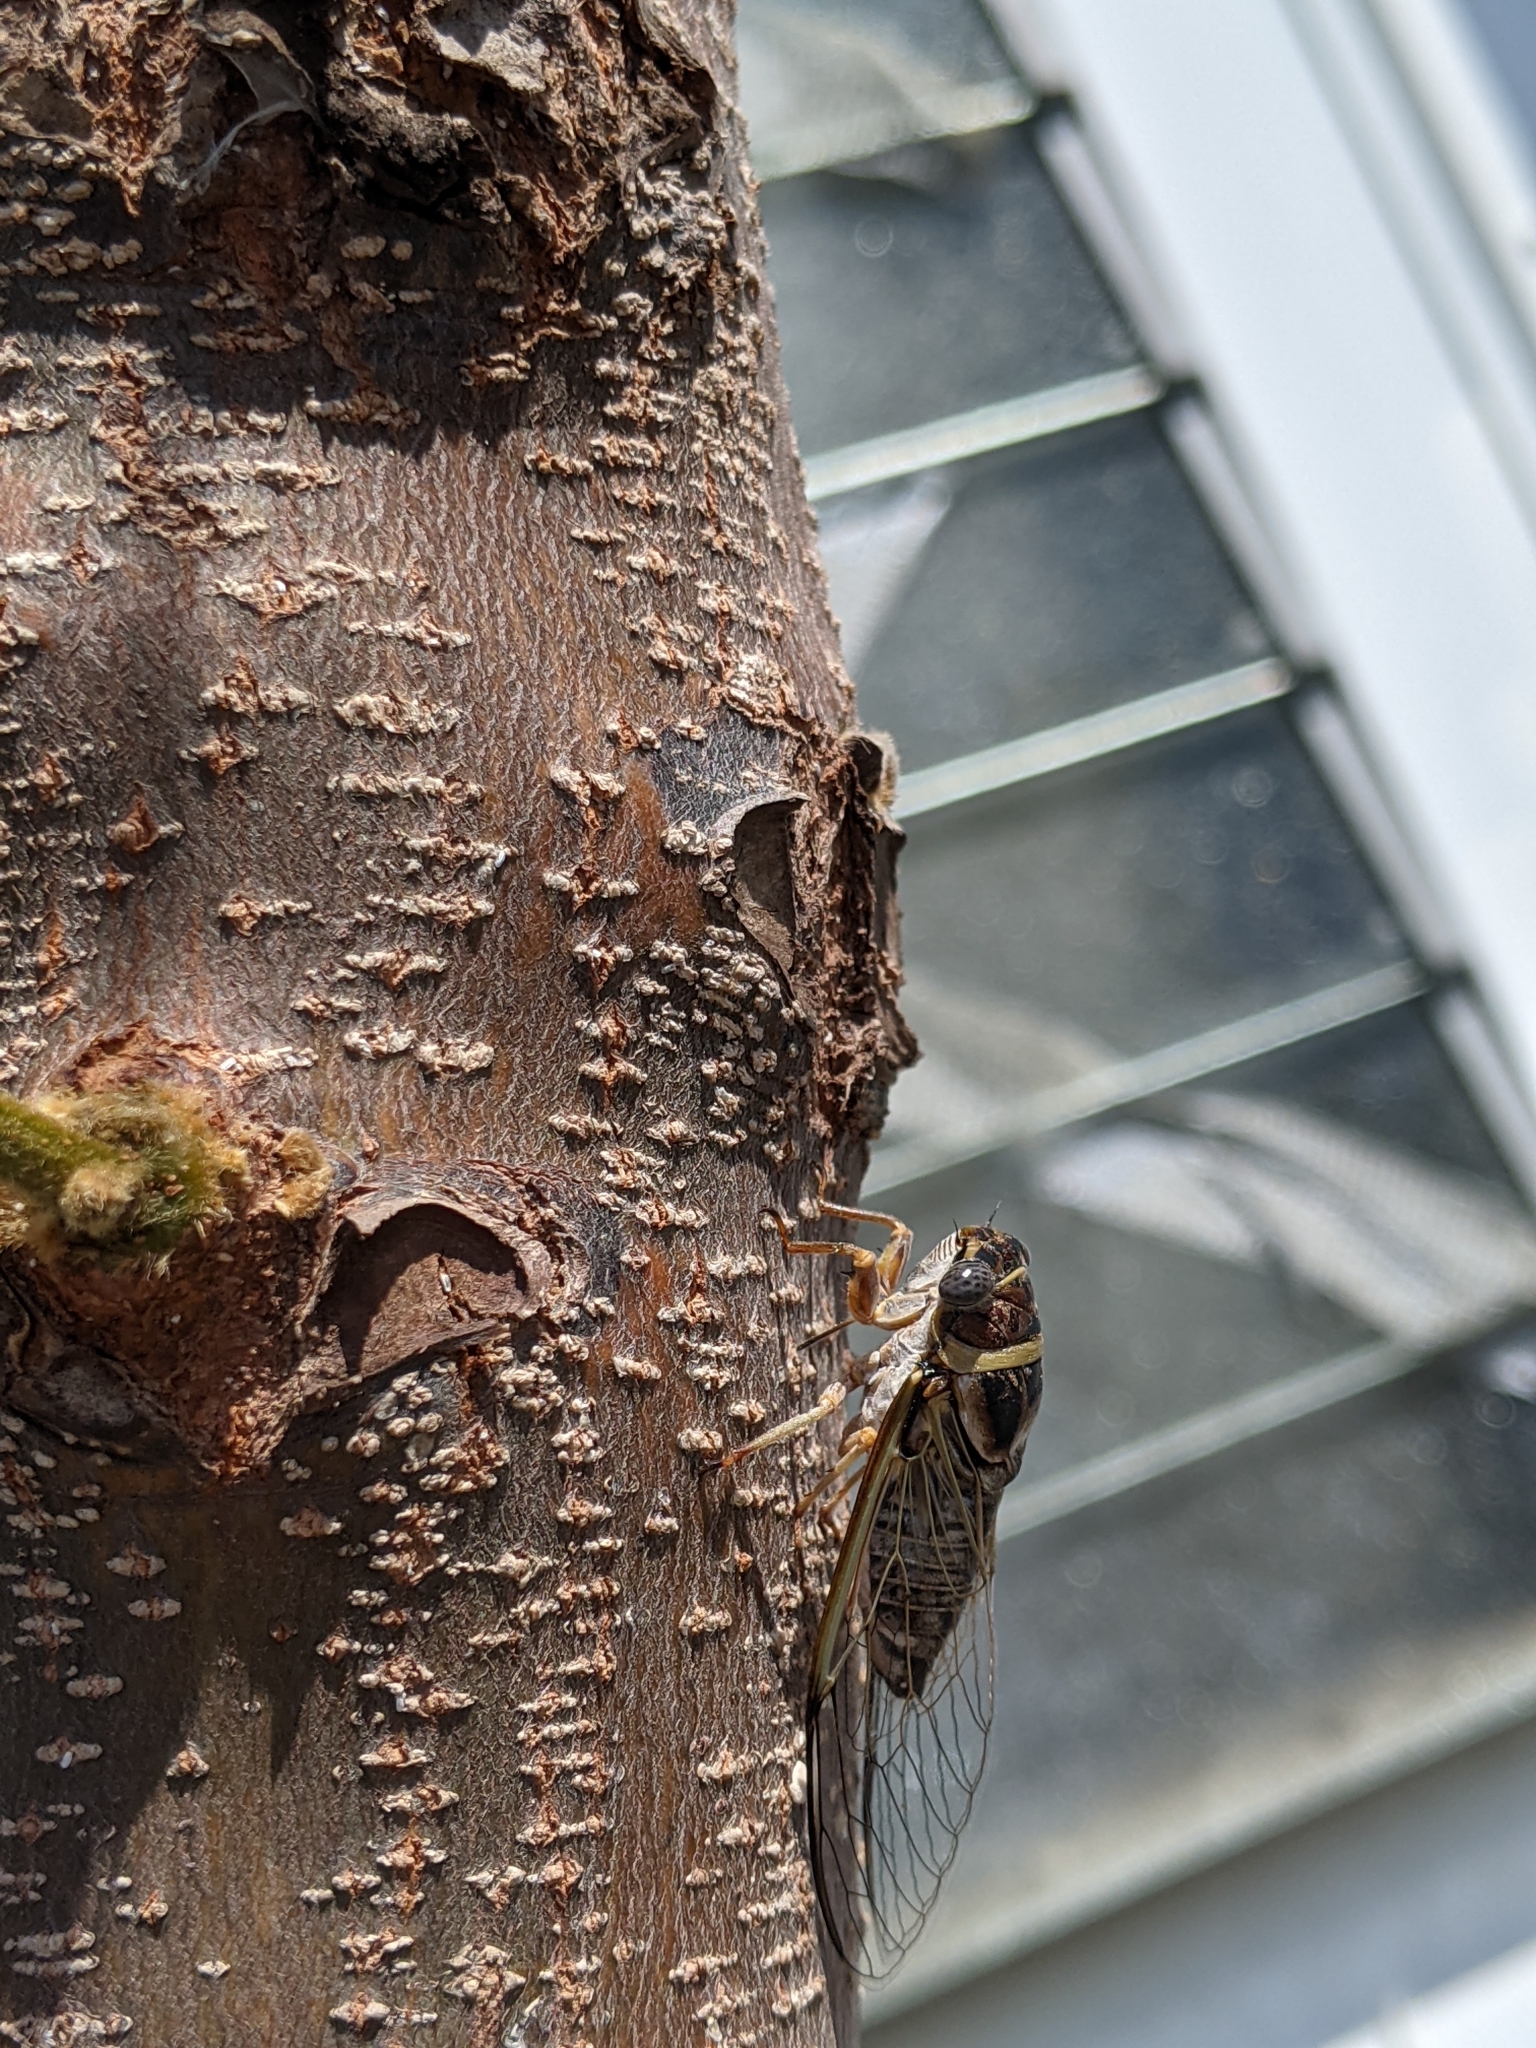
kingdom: Animalia
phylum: Arthropoda
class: Insecta
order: Hemiptera
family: Cicadidae
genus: Diceroprocta
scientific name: Diceroprocta viridifascia
